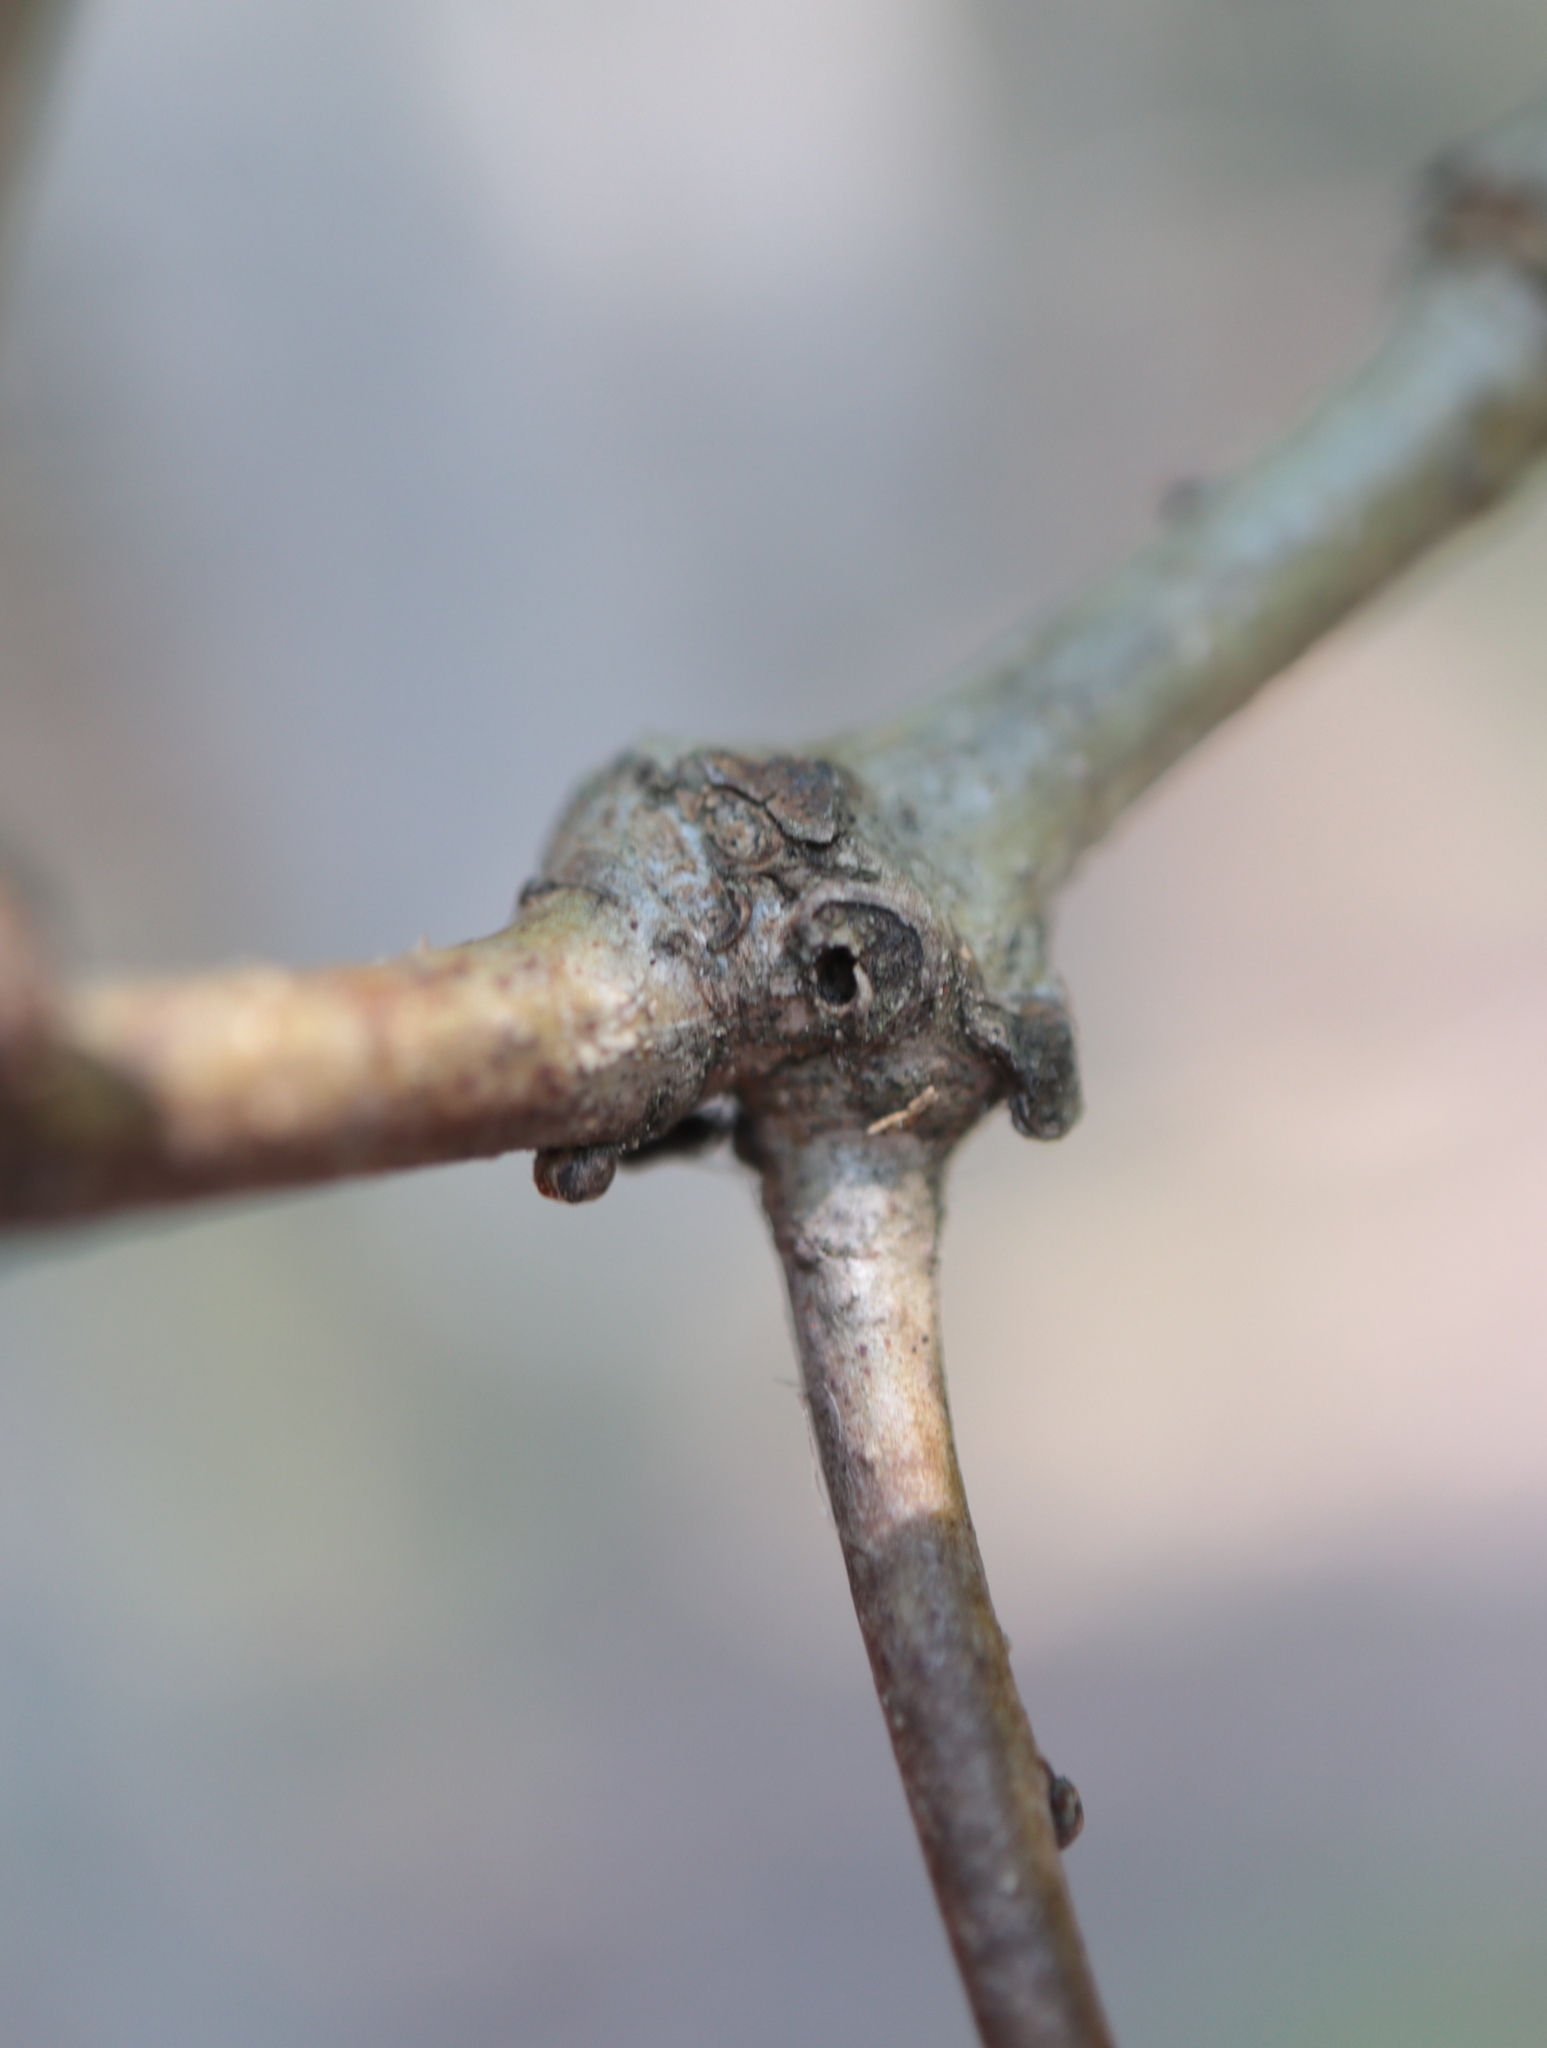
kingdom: Animalia
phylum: Arthropoda
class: Insecta
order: Hymenoptera
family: Cynipidae
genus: Loxaulus
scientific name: Loxaulus
